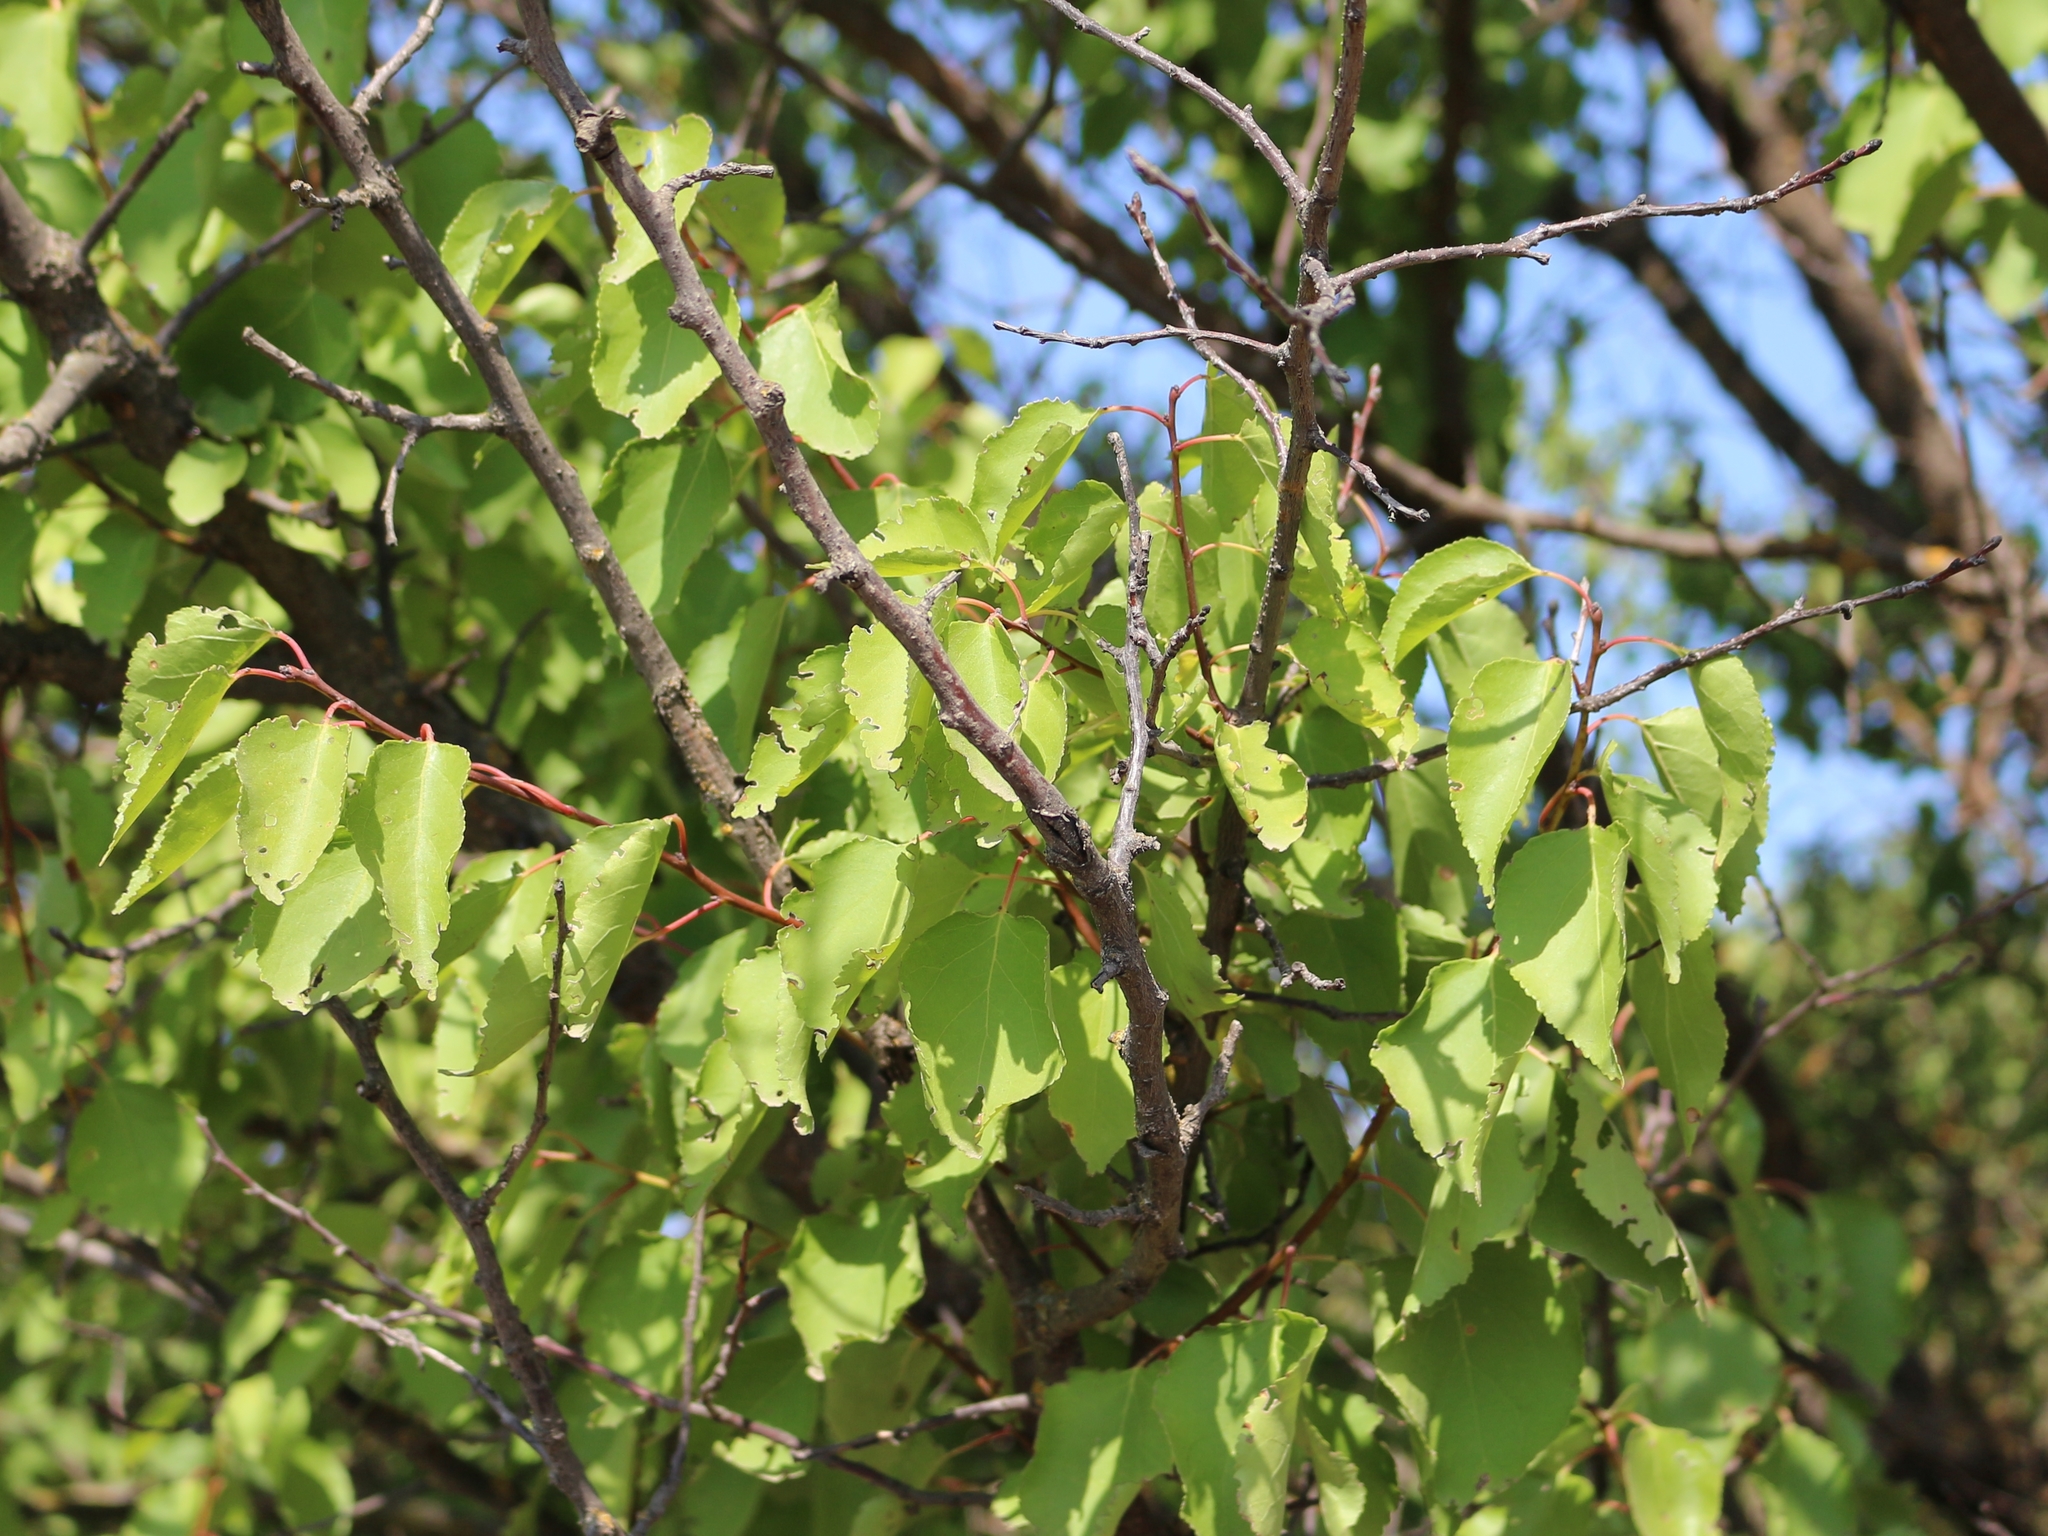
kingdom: Plantae
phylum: Tracheophyta
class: Magnoliopsida
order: Rosales
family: Rosaceae
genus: Prunus
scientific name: Prunus armeniaca
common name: Apricot
